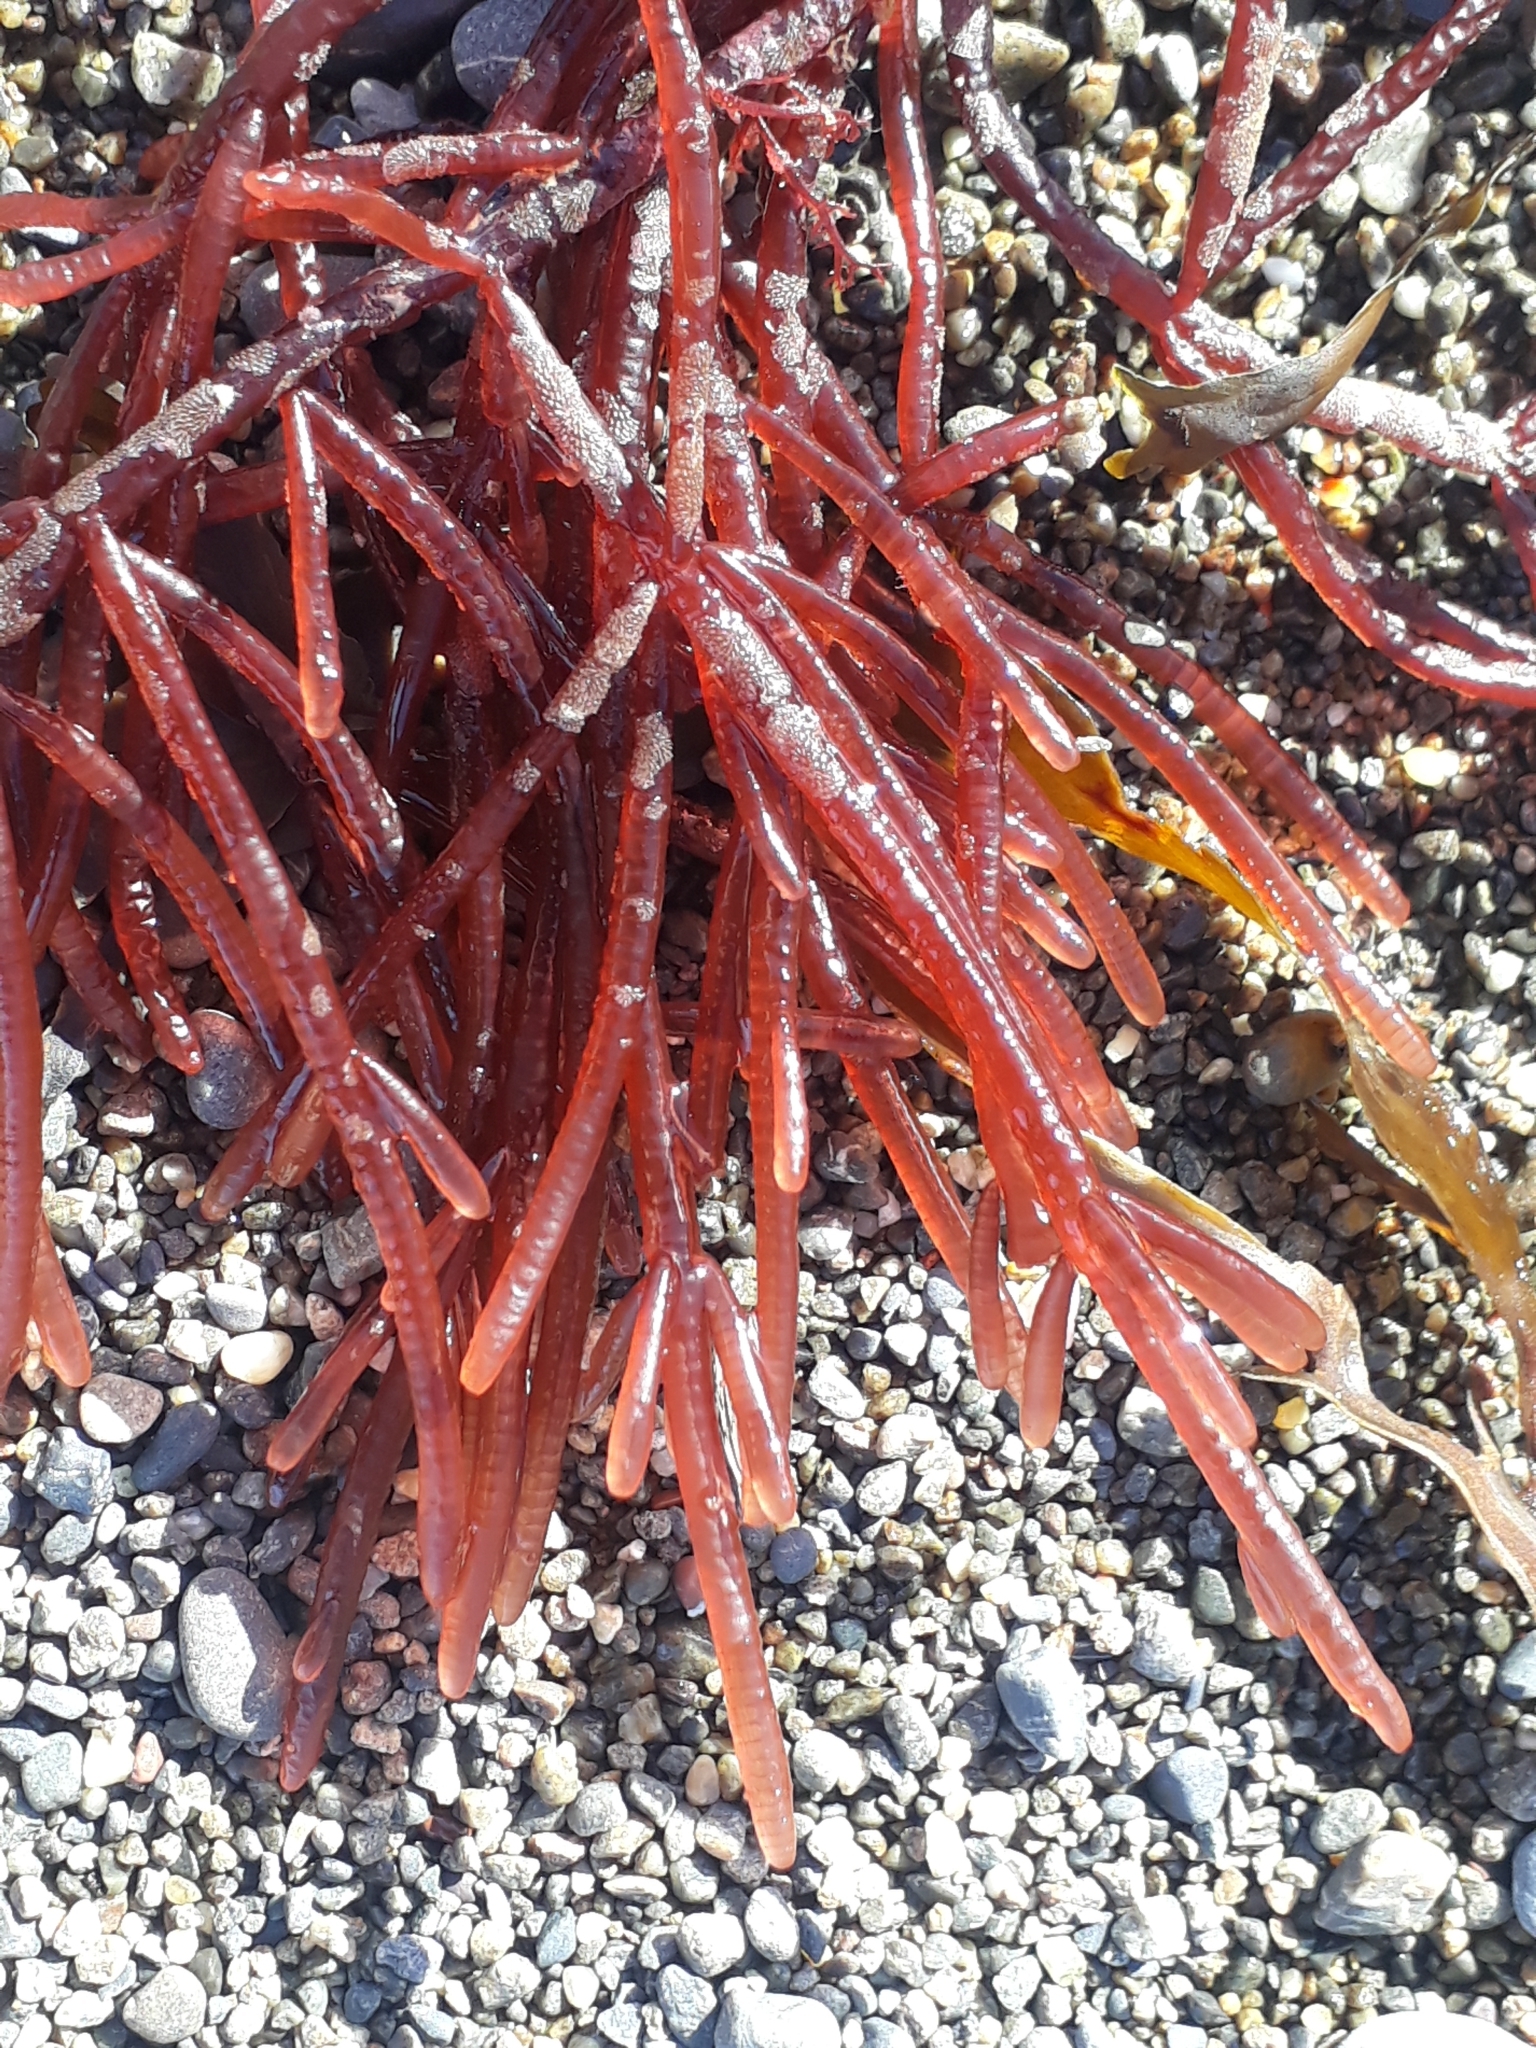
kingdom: Plantae
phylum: Rhodophyta
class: Florideophyceae
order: Rhodymeniales
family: Champiaceae
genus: Champia
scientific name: Champia novae-zelandiae
